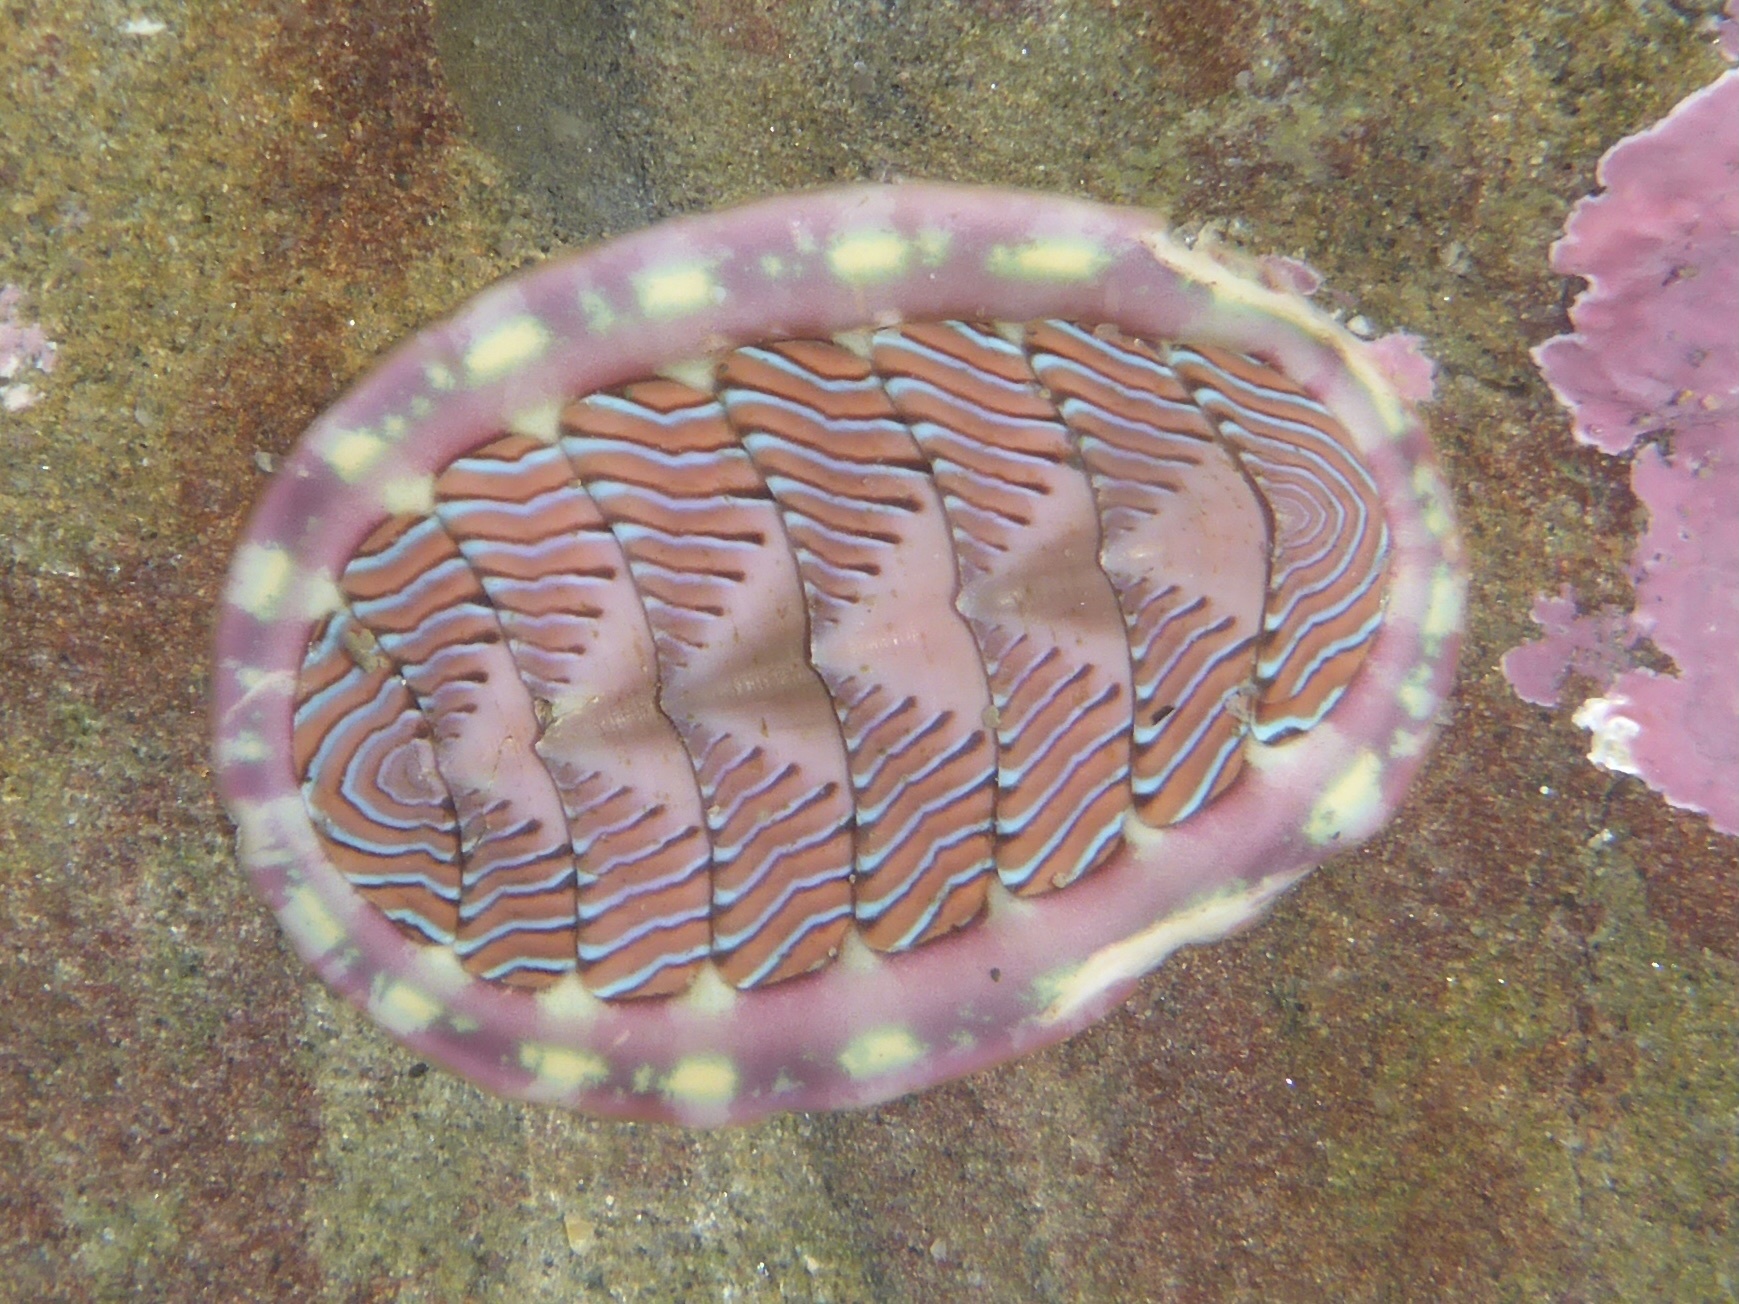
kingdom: Animalia
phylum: Mollusca
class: Polyplacophora
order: Chitonida
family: Tonicellidae
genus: Tonicella
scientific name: Tonicella lineata
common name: Lined chiton
